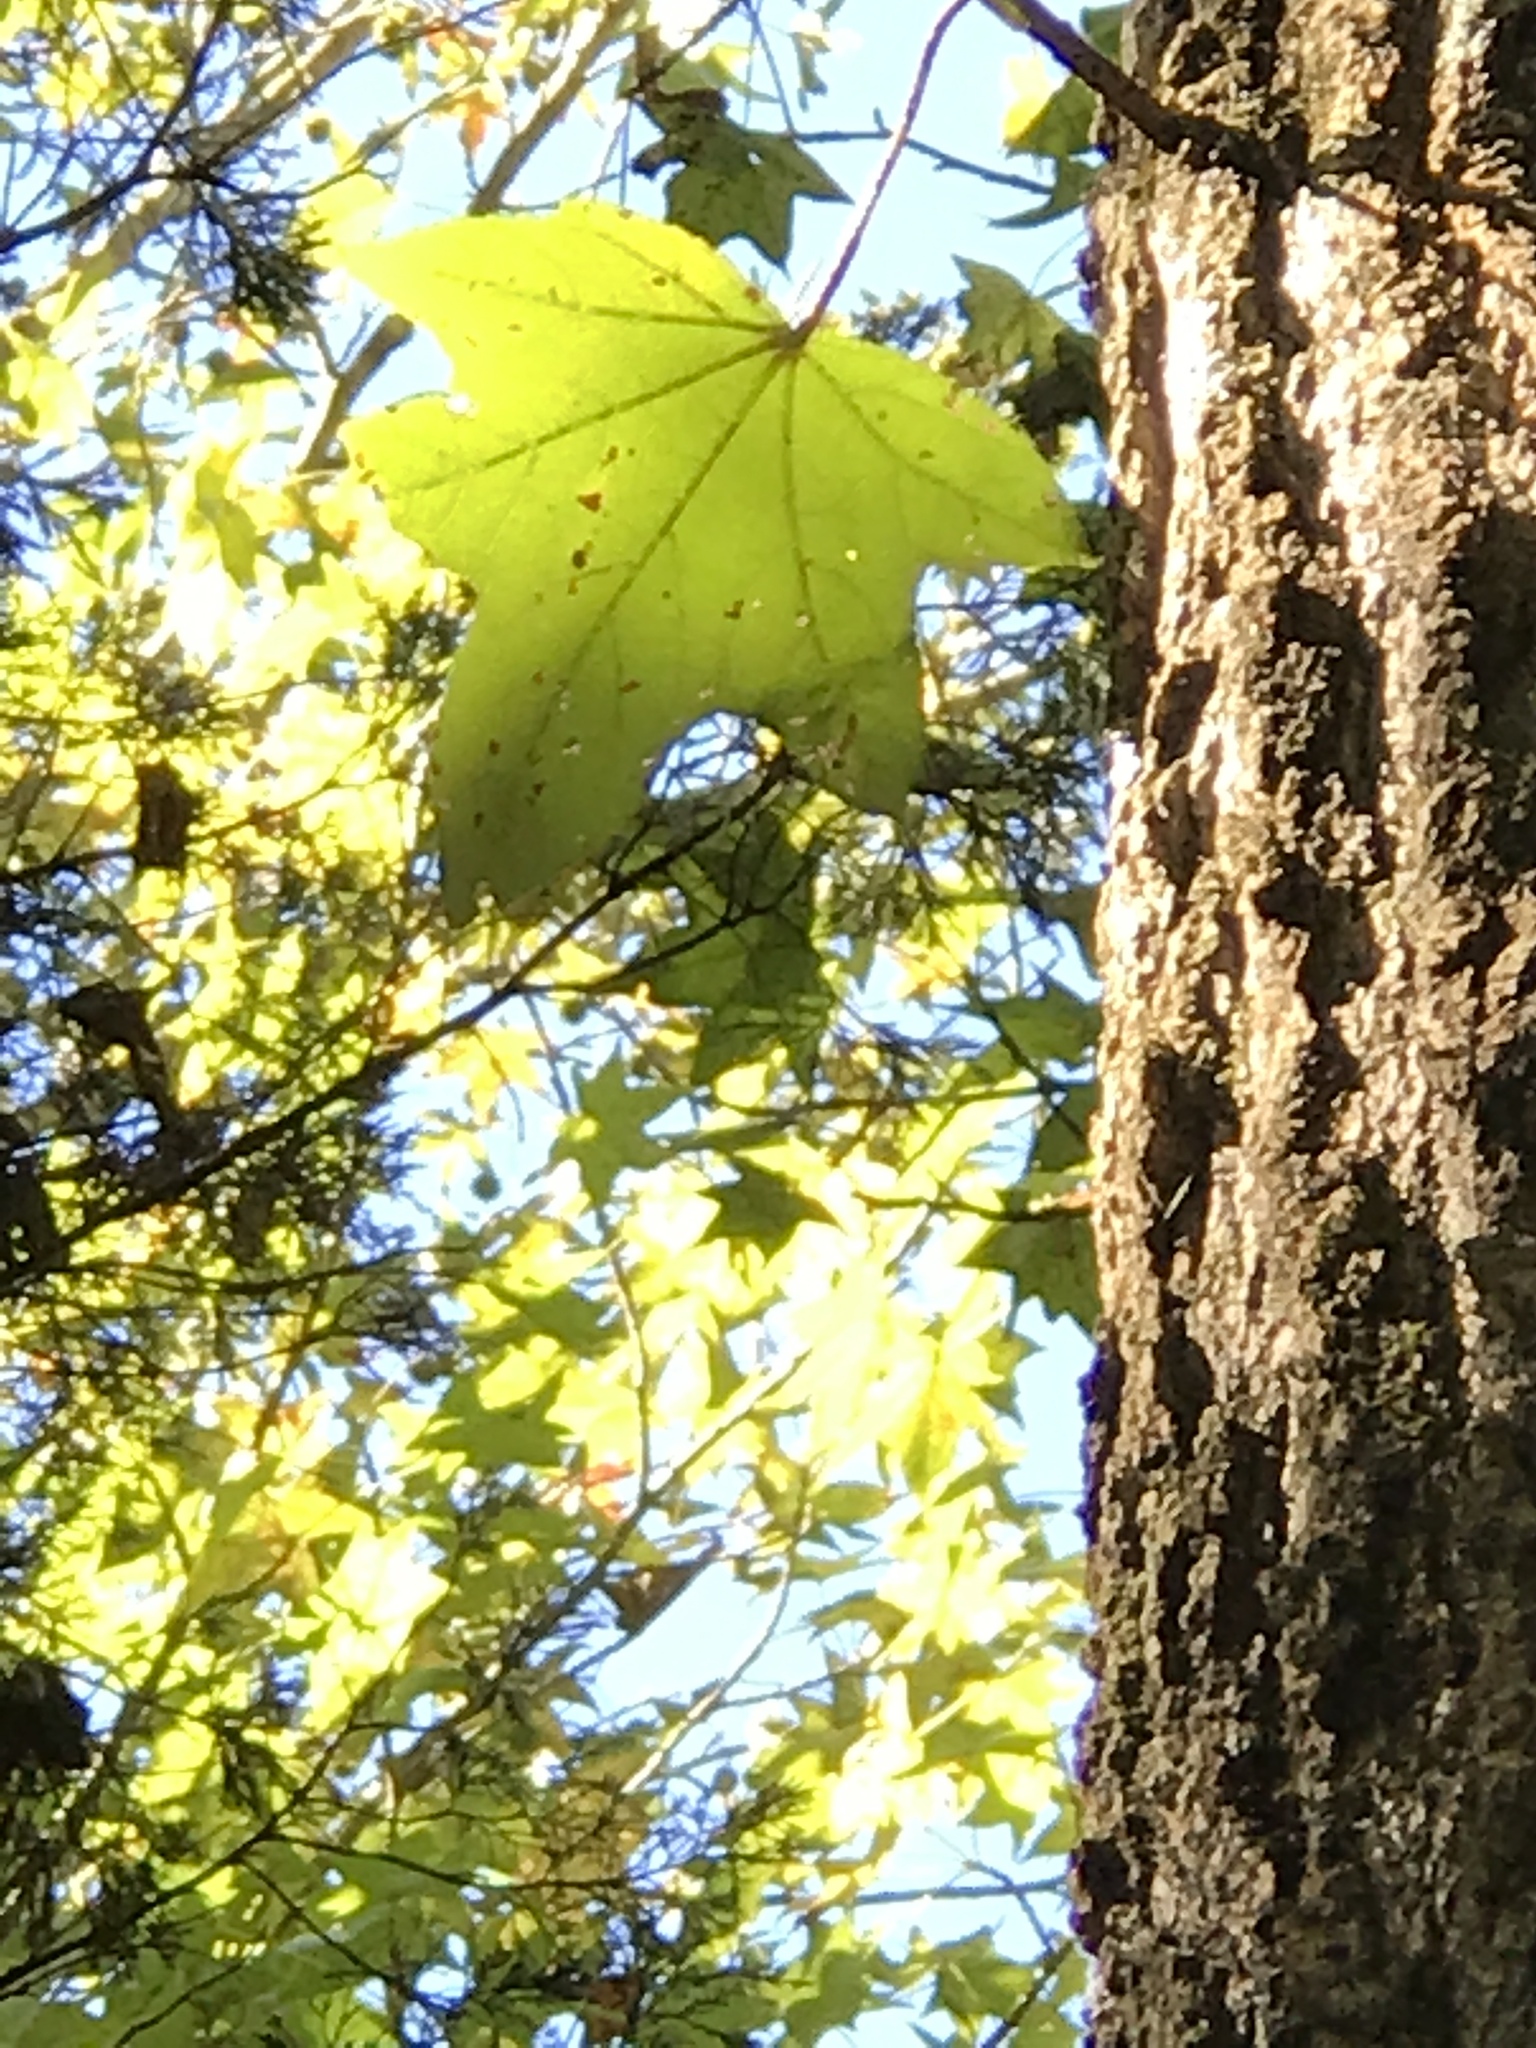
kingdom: Plantae
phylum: Tracheophyta
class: Magnoliopsida
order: Saxifragales
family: Altingiaceae
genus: Liquidambar
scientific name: Liquidambar styraciflua
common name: Sweet gum
